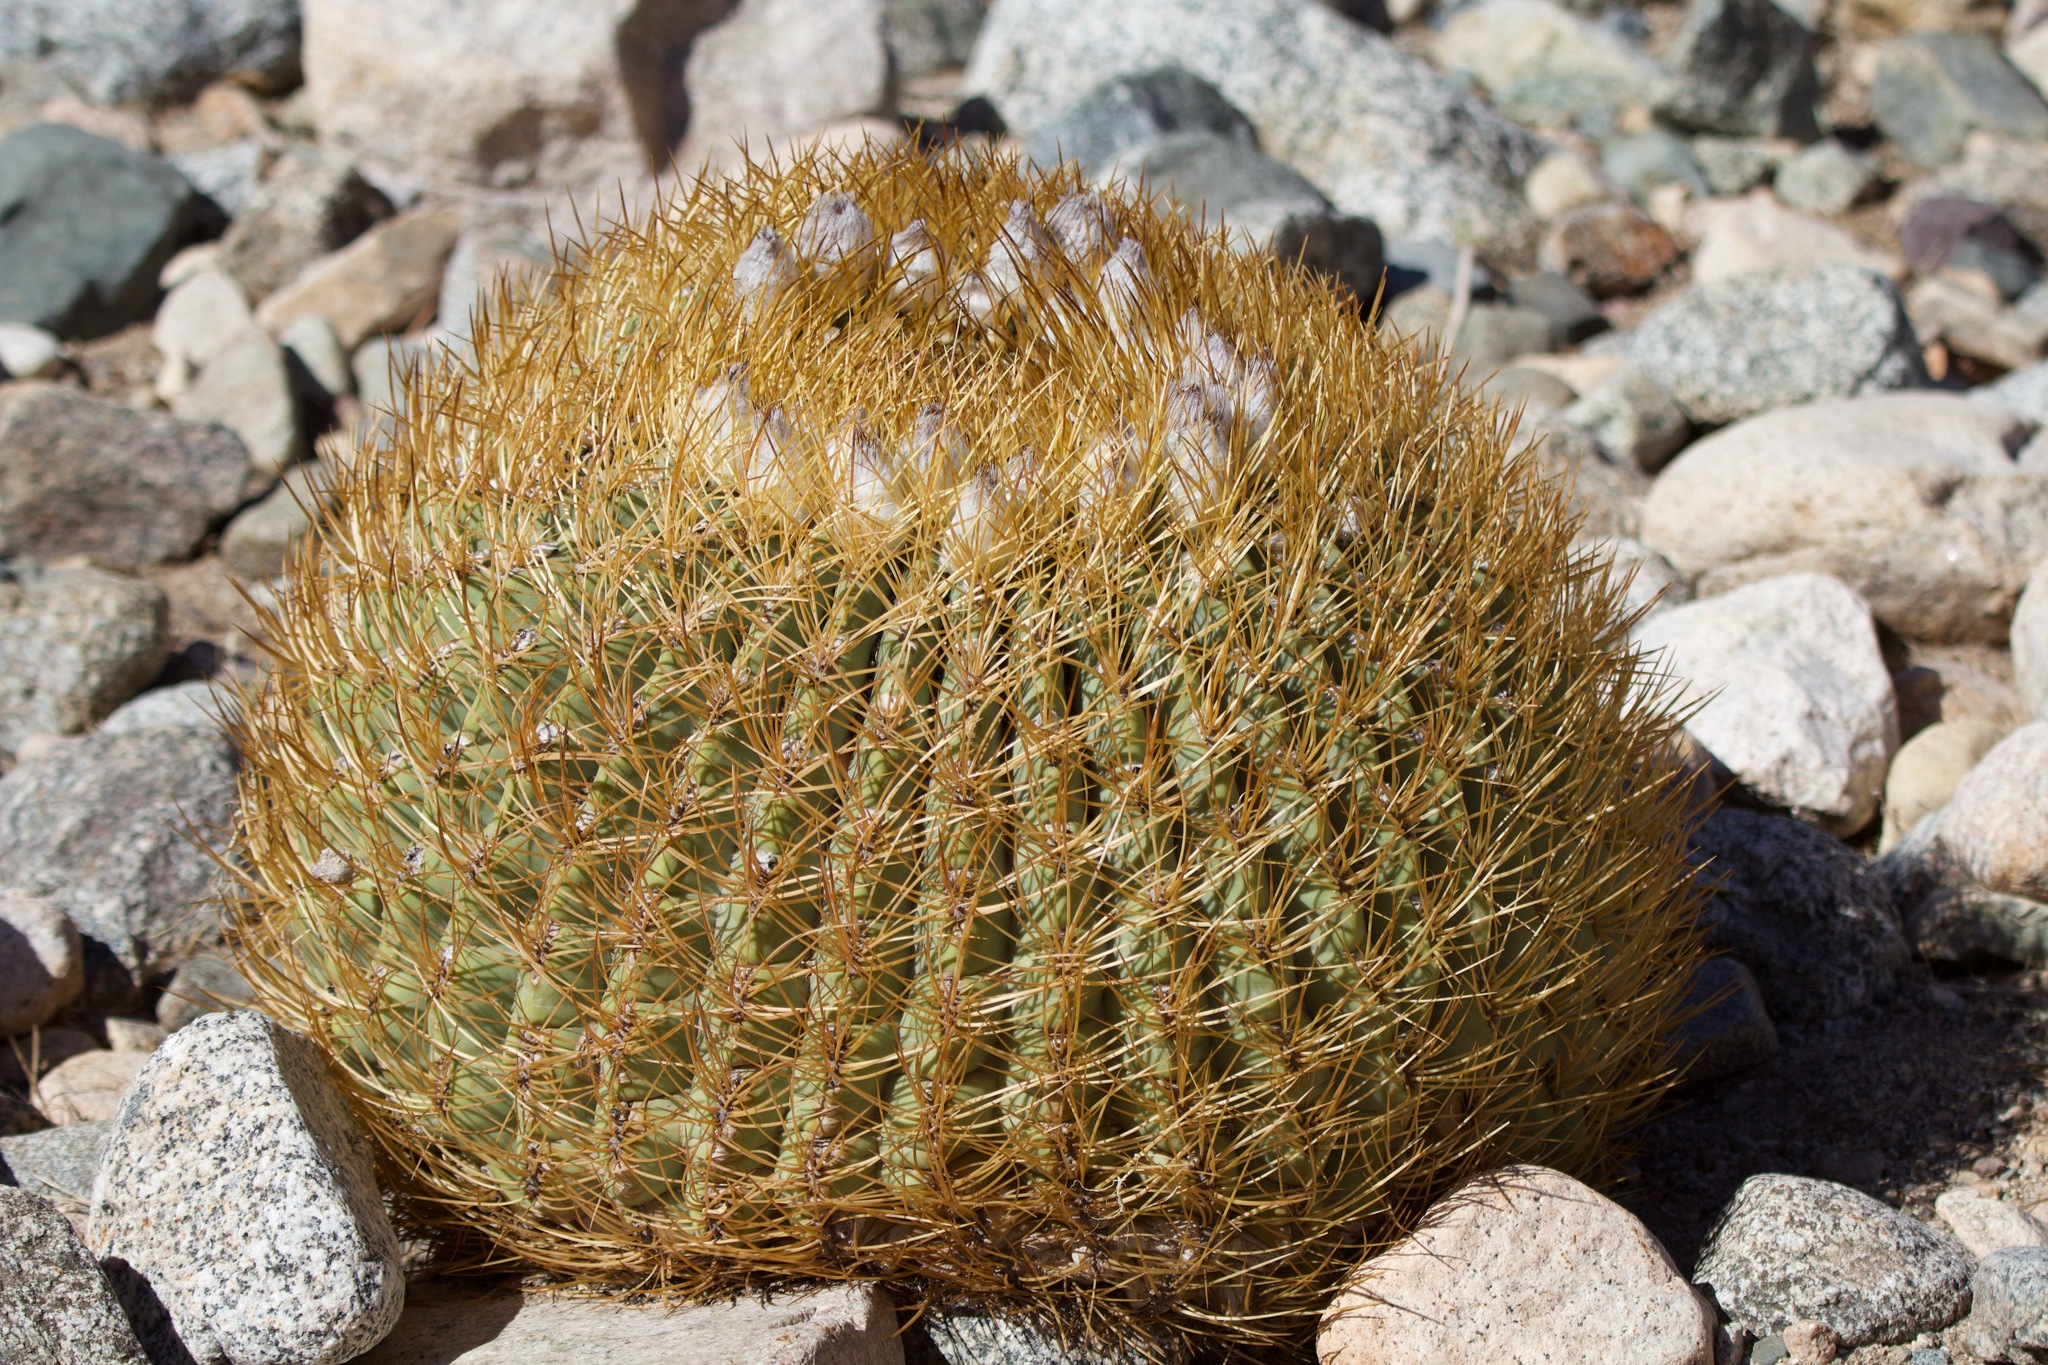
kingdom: Plantae
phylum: Tracheophyta
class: Magnoliopsida
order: Caryophyllales
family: Cactaceae
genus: Eriosyce
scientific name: Eriosyce aurata
